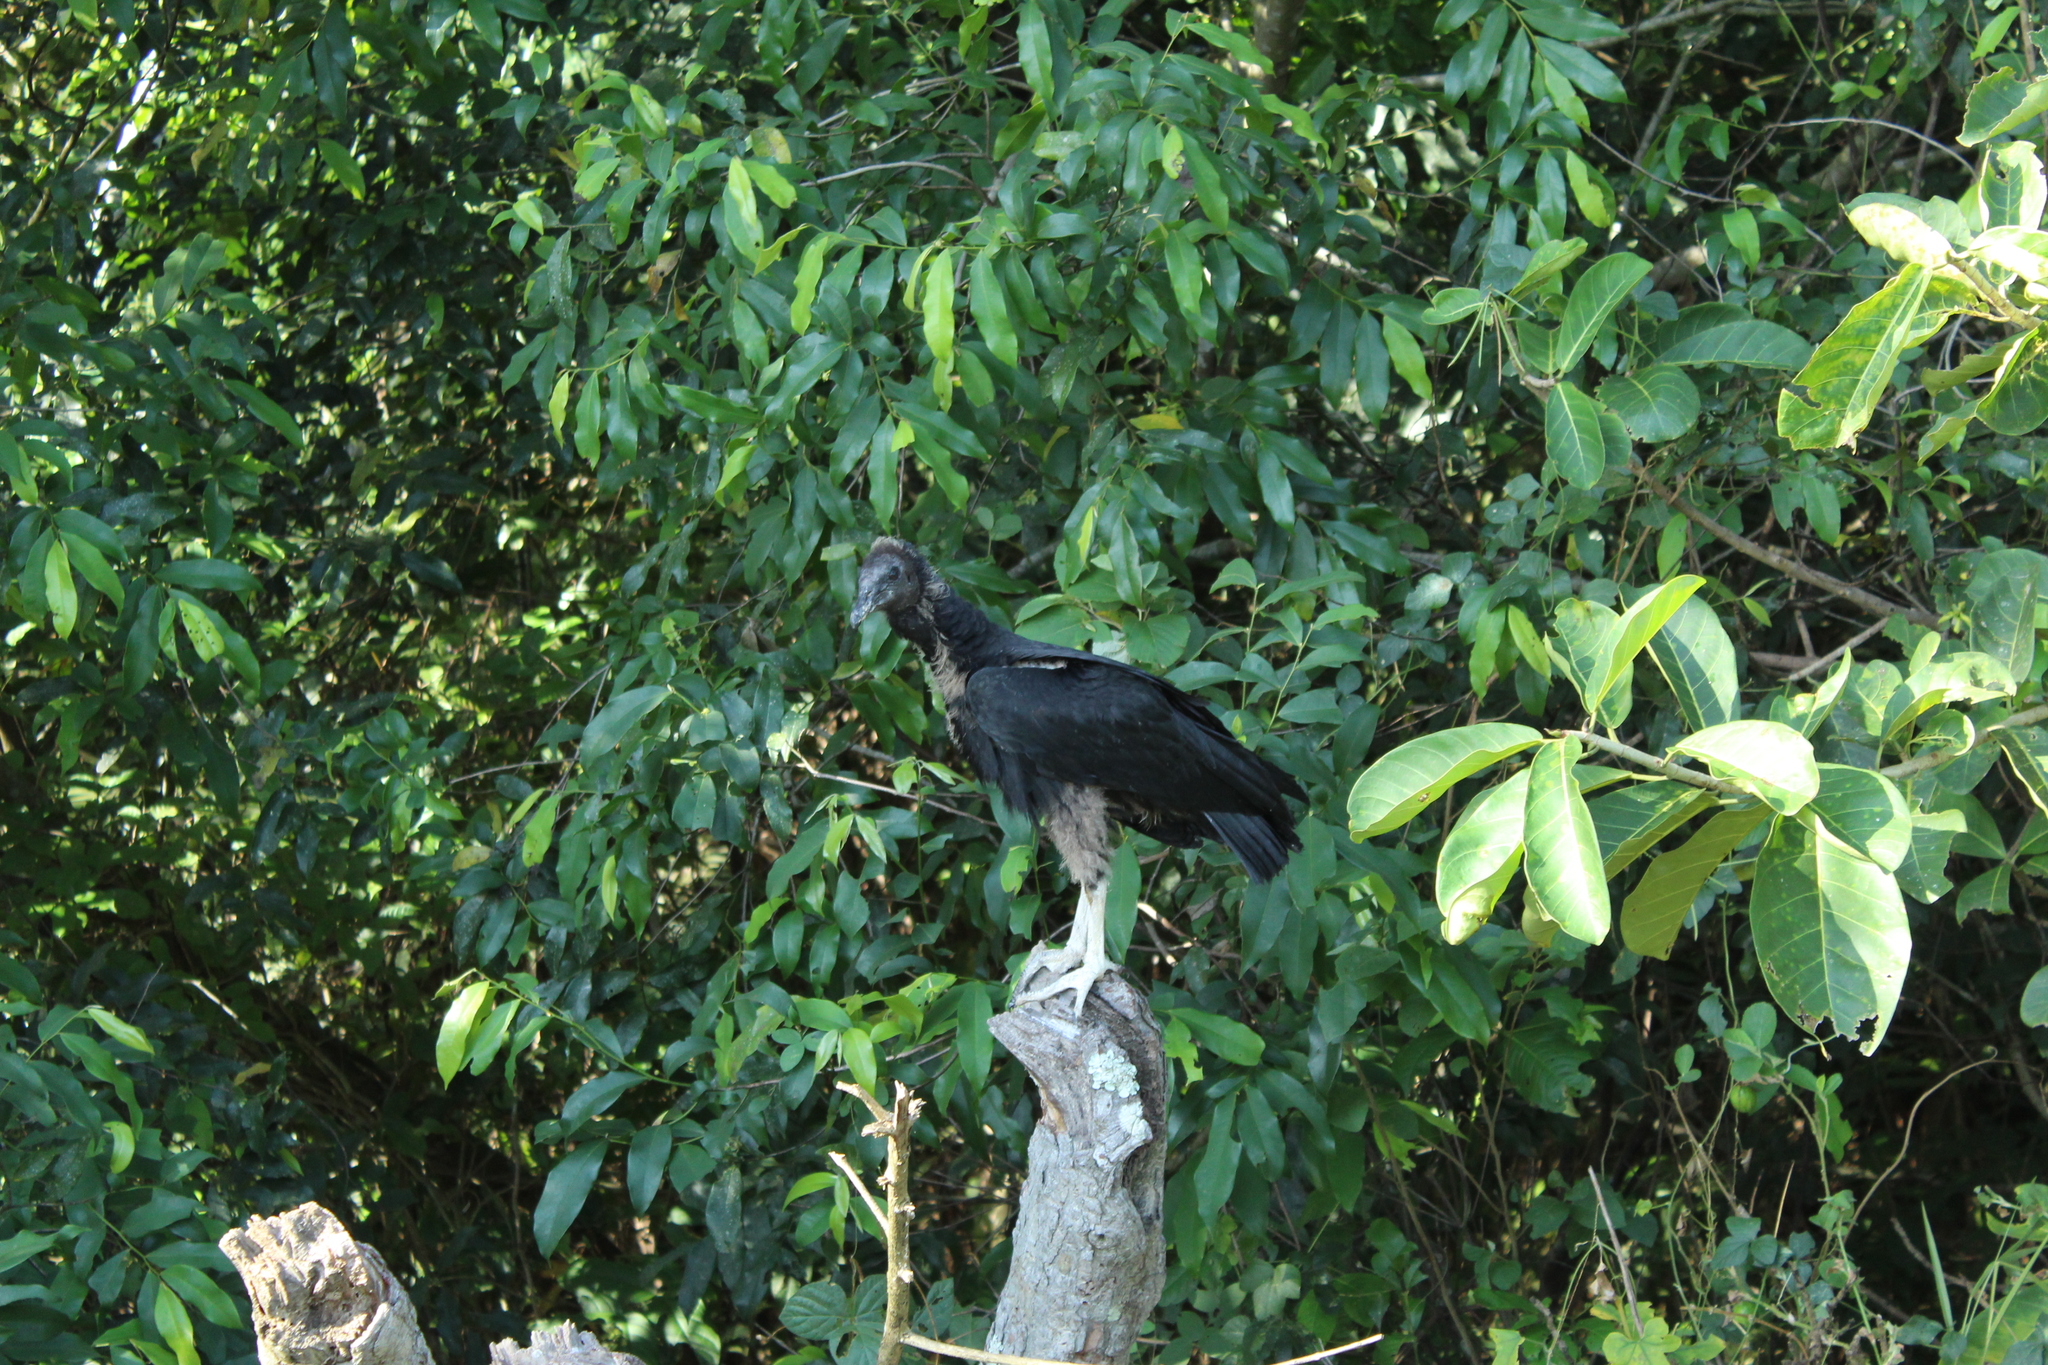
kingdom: Animalia
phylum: Chordata
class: Aves
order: Accipitriformes
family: Cathartidae
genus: Coragyps
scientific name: Coragyps atratus
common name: Black vulture
